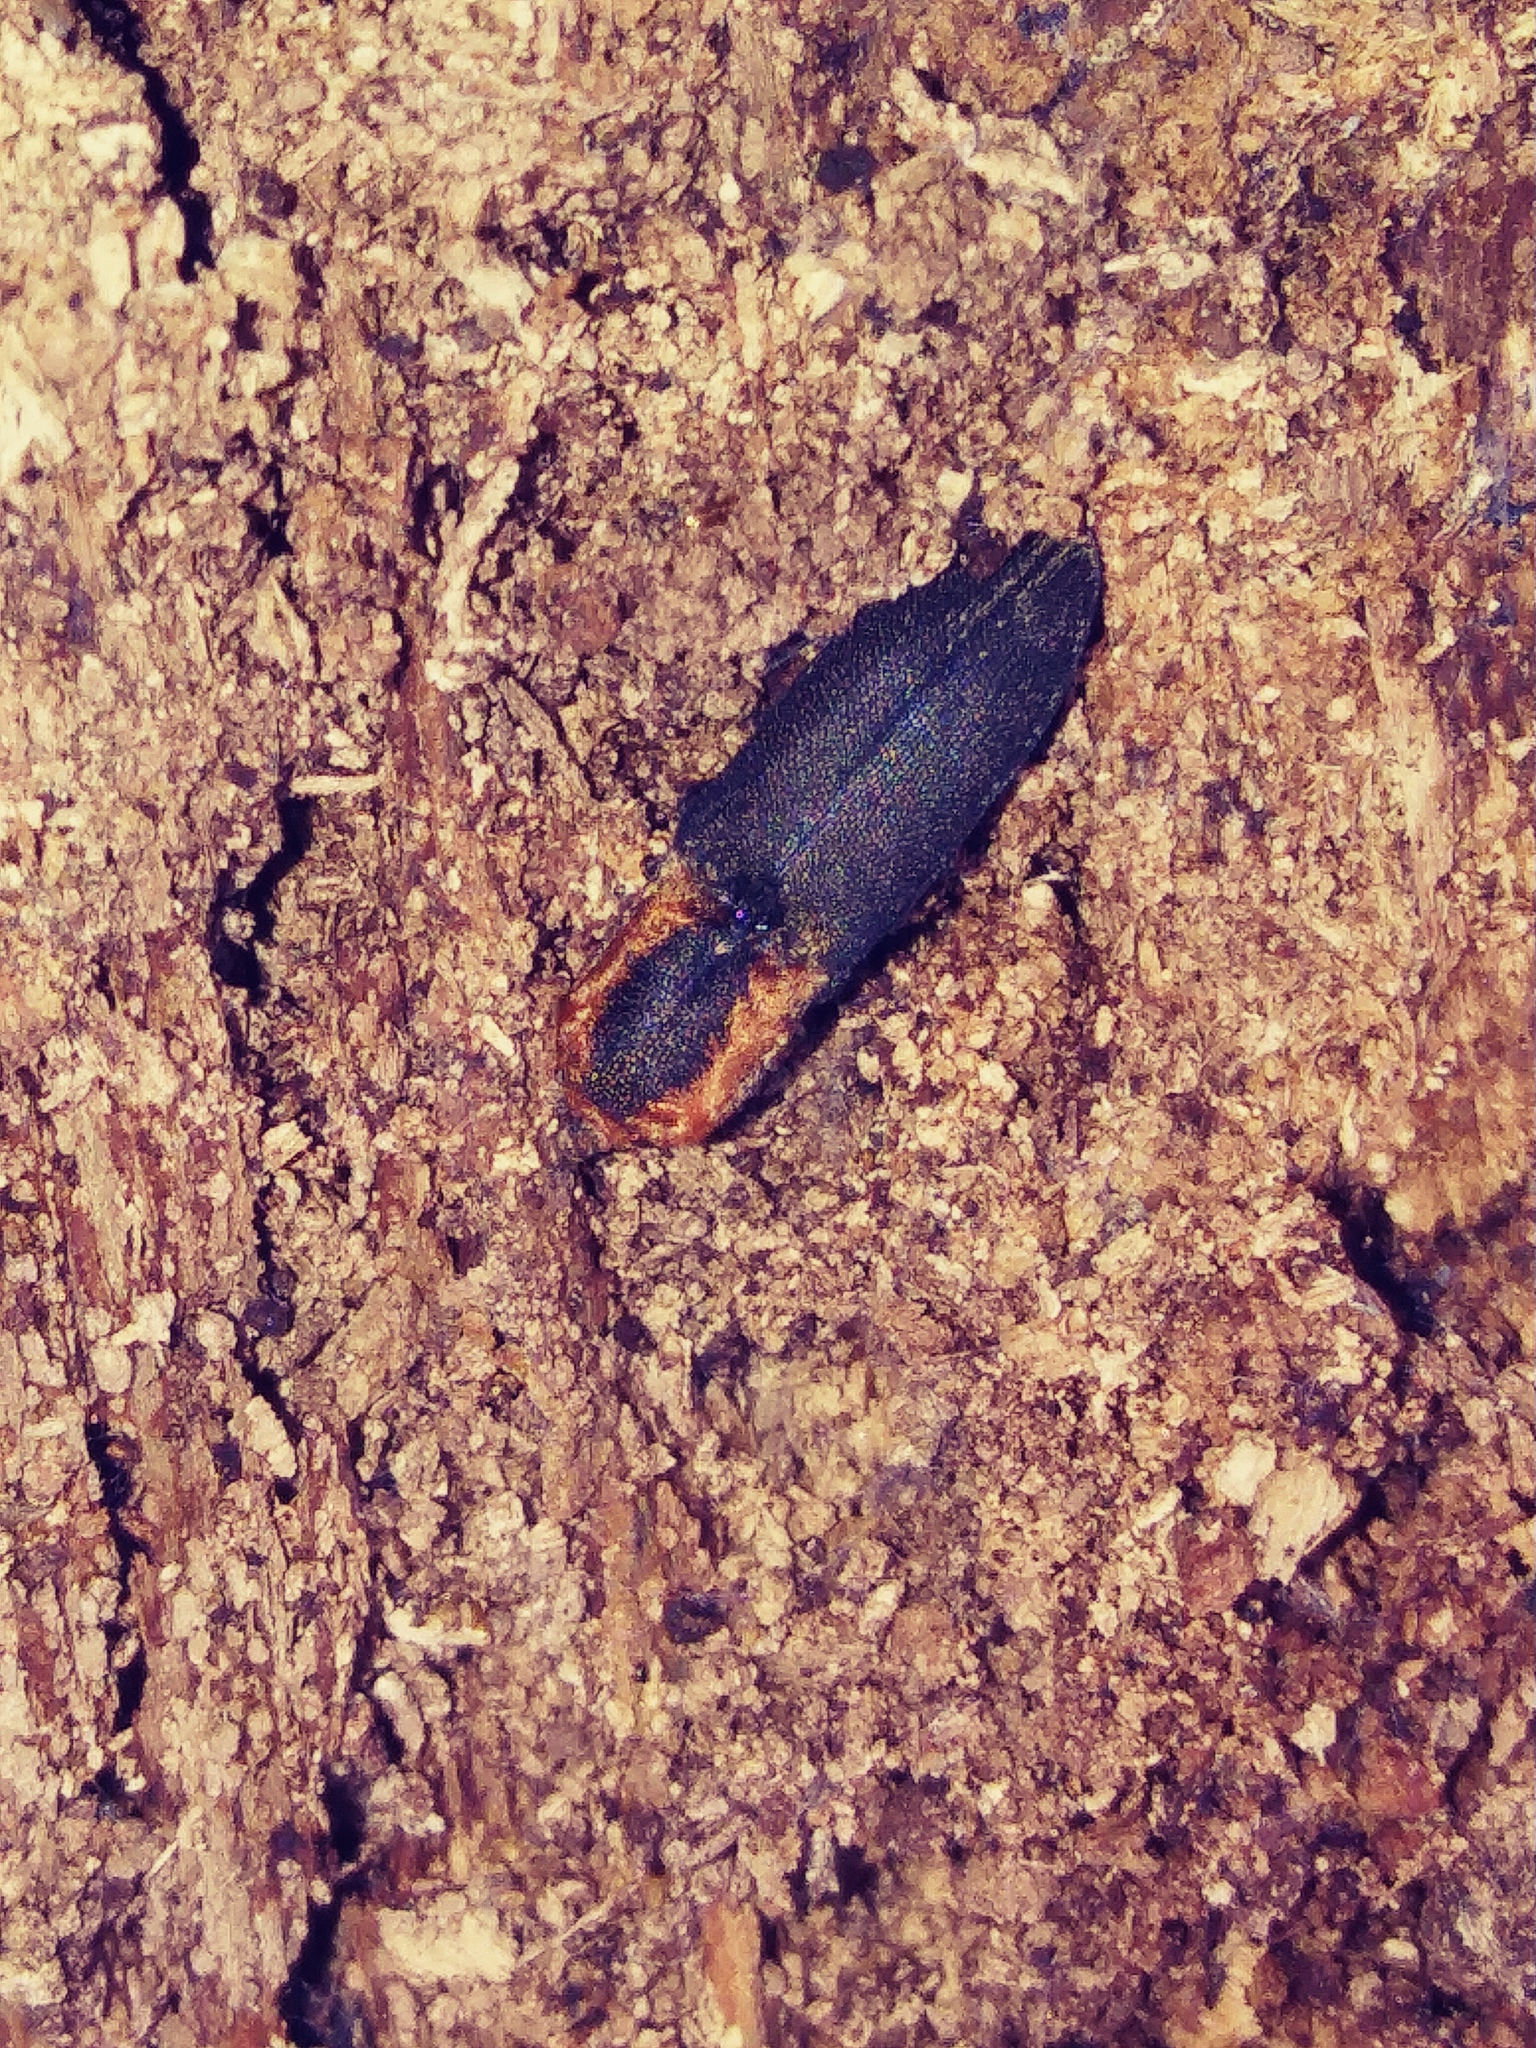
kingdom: Animalia
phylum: Arthropoda
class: Insecta
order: Coleoptera
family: Elateridae
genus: Lacon
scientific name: Lacon discoideus
